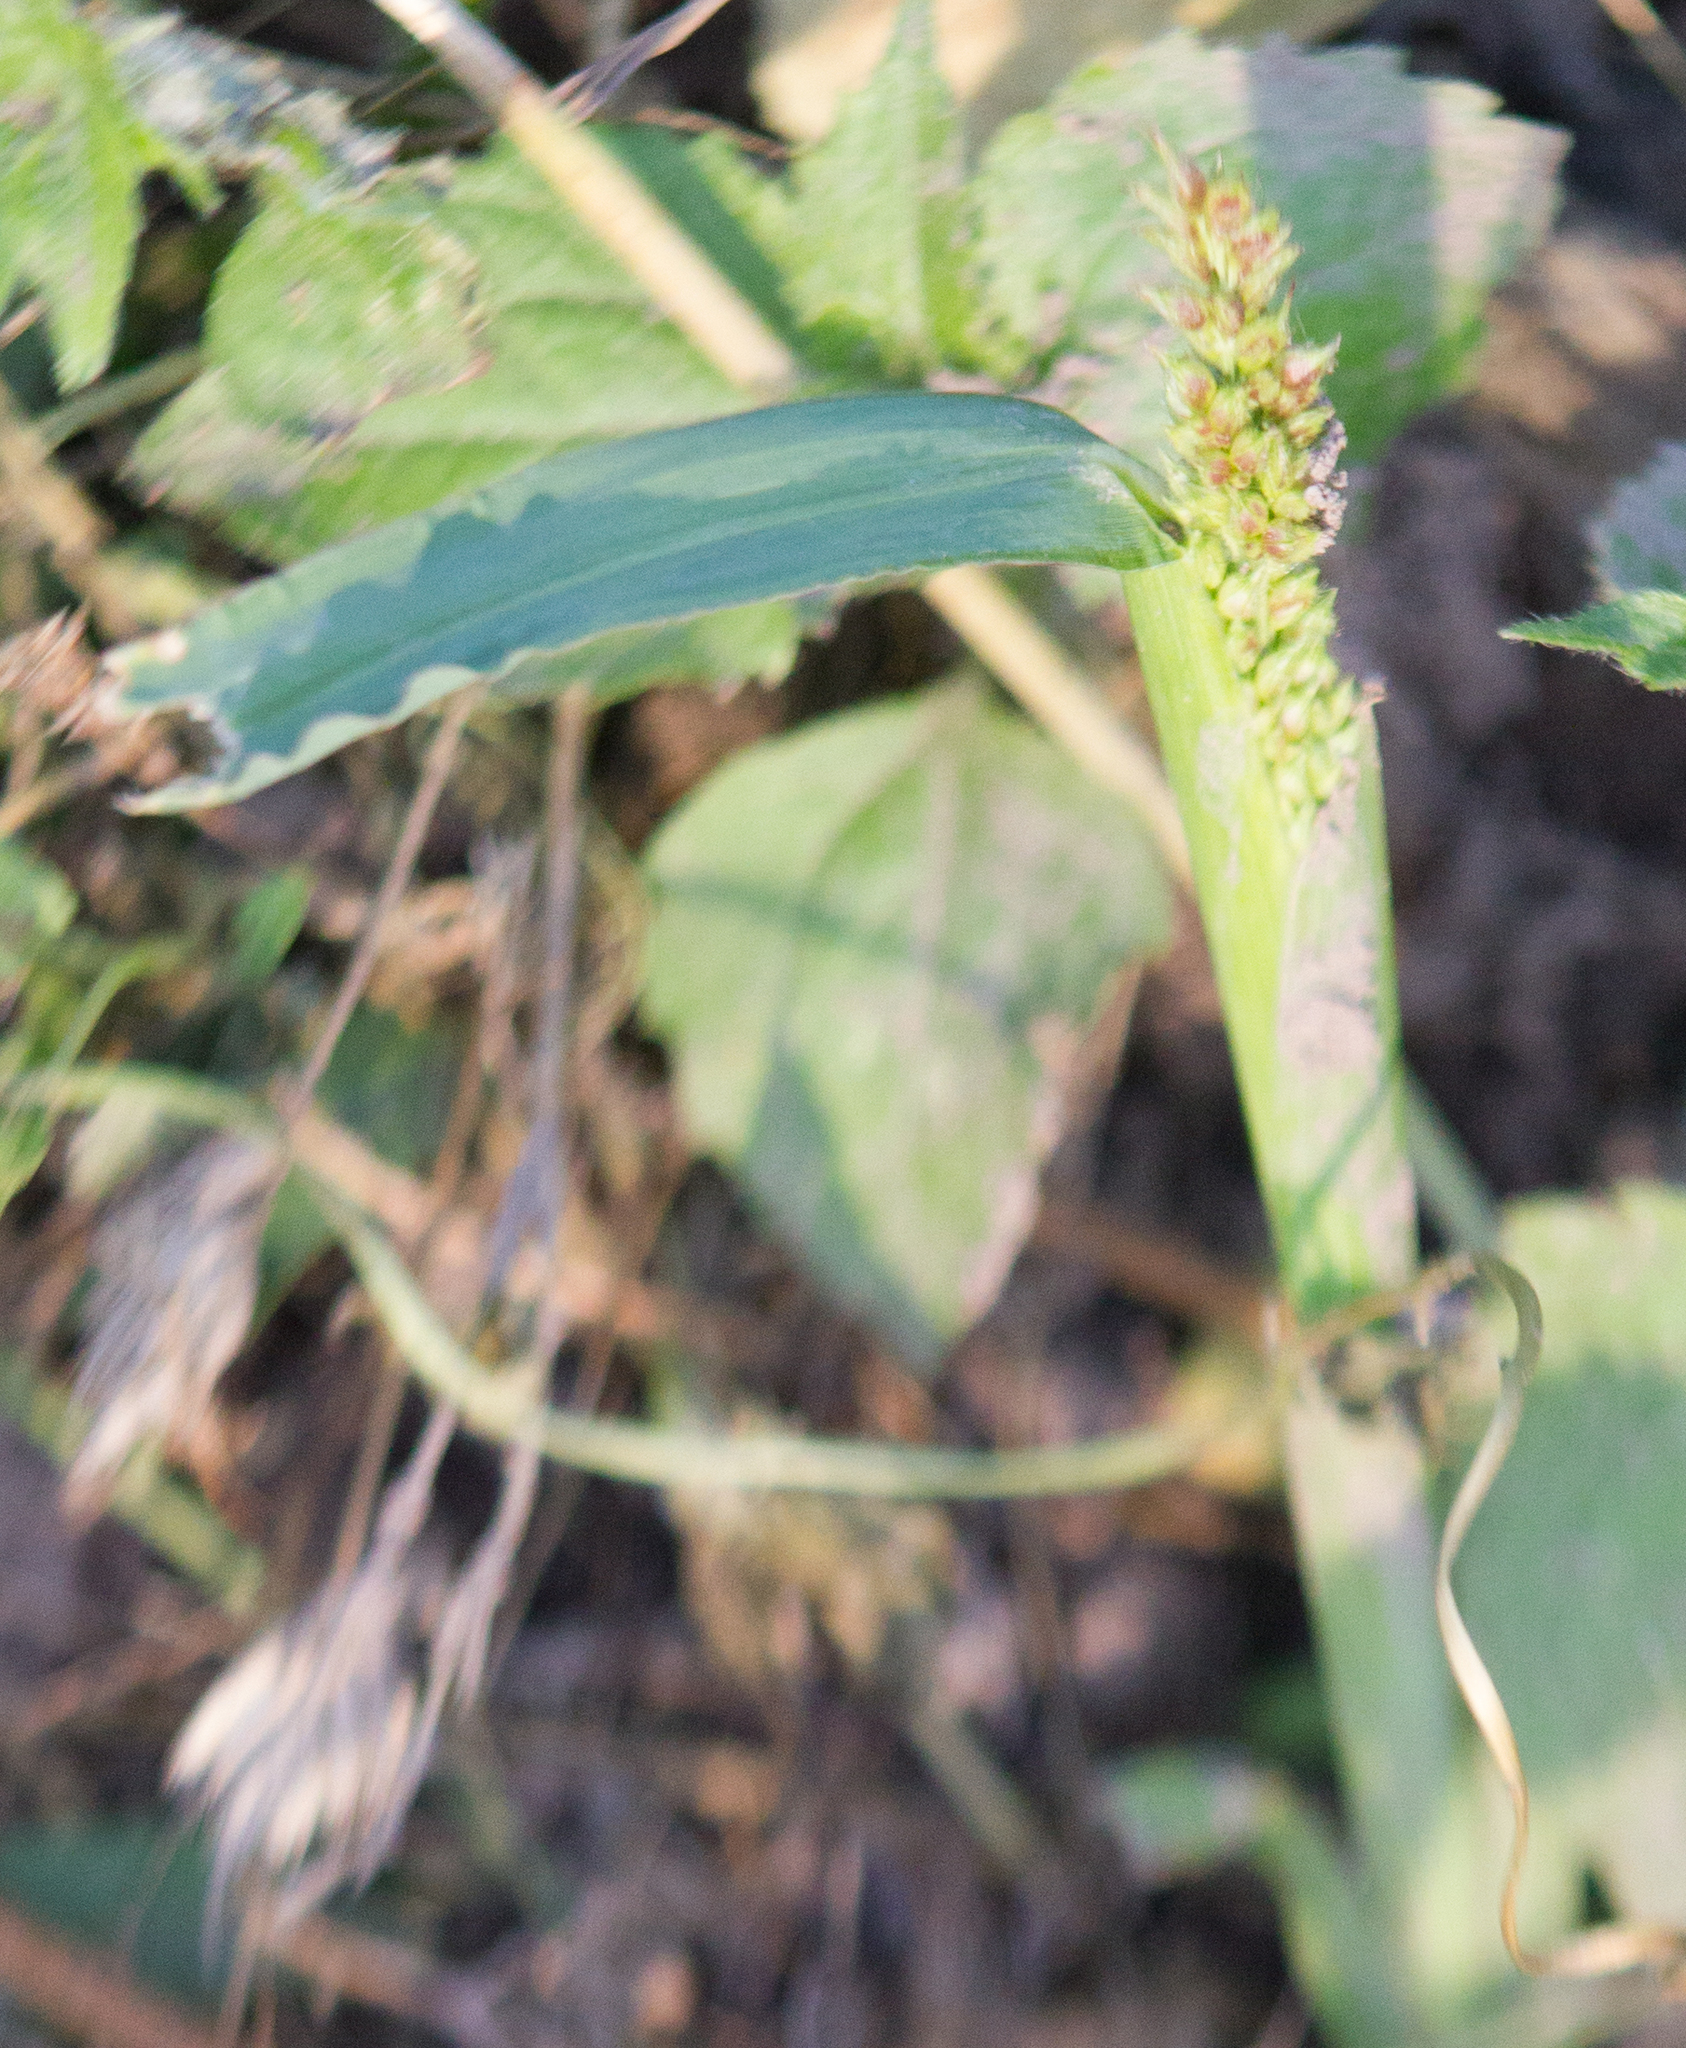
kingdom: Plantae
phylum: Tracheophyta
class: Liliopsida
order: Poales
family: Poaceae
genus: Echinochloa
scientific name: Echinochloa crus-galli
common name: Cockspur
